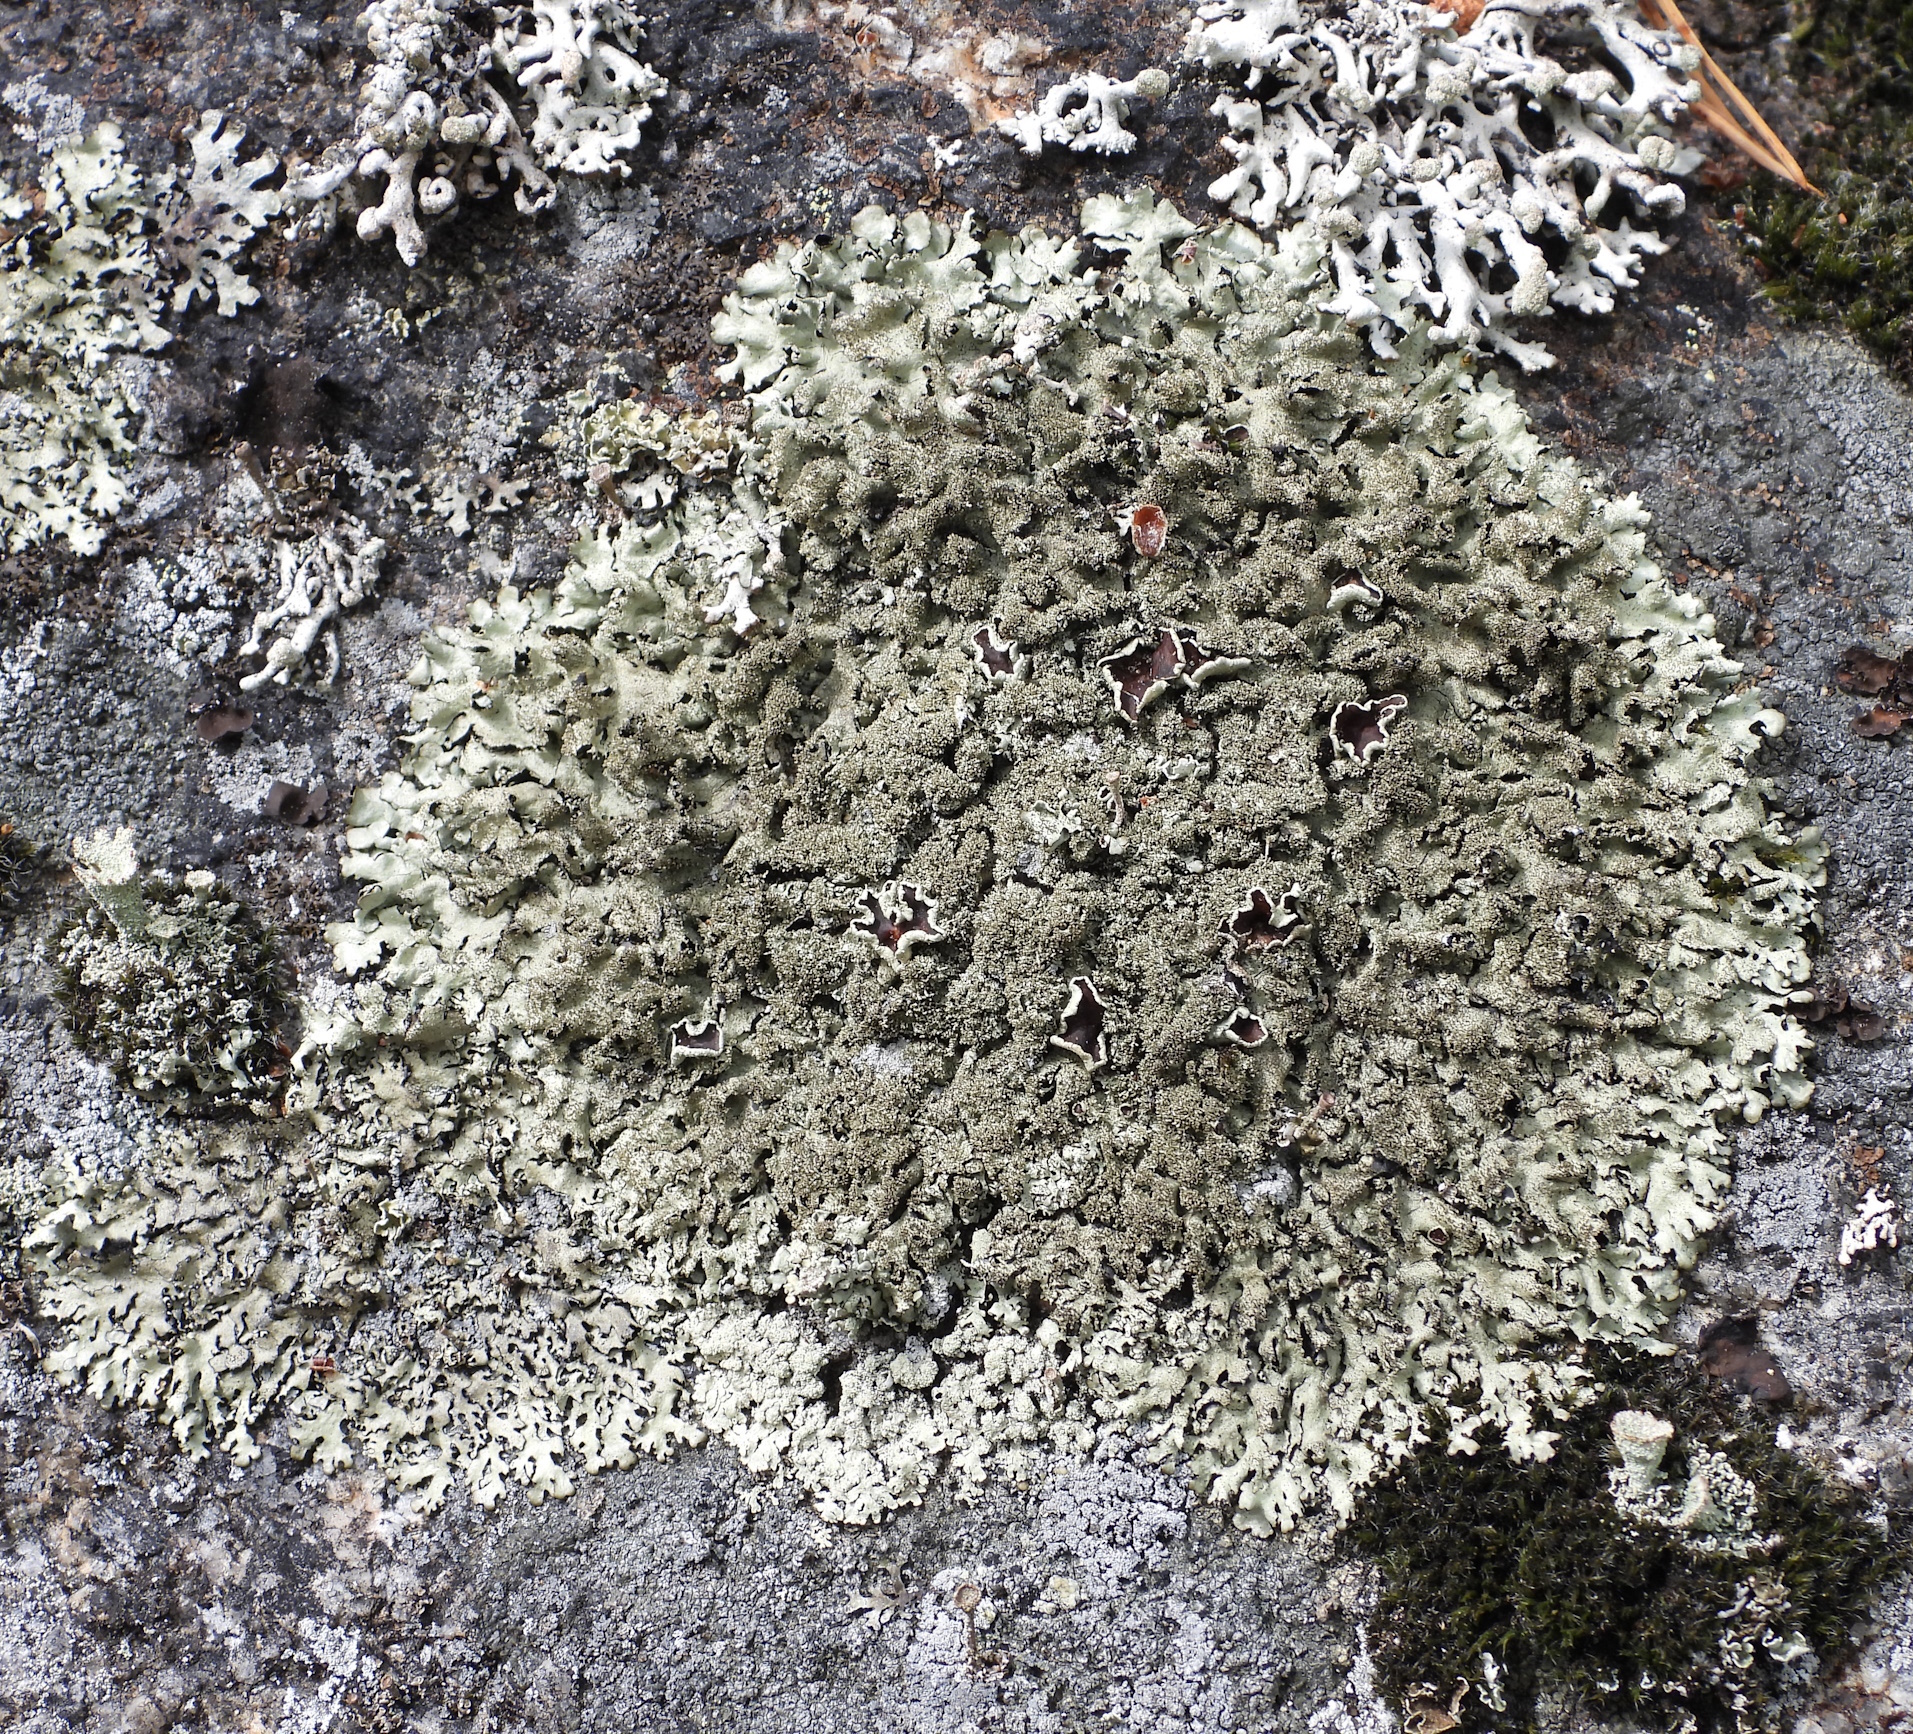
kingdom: Fungi
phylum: Ascomycota
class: Lecanoromycetes
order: Lecanorales
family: Parmeliaceae
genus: Xanthoparmelia
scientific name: Xanthoparmelia conspersa
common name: Peppered rock shield
